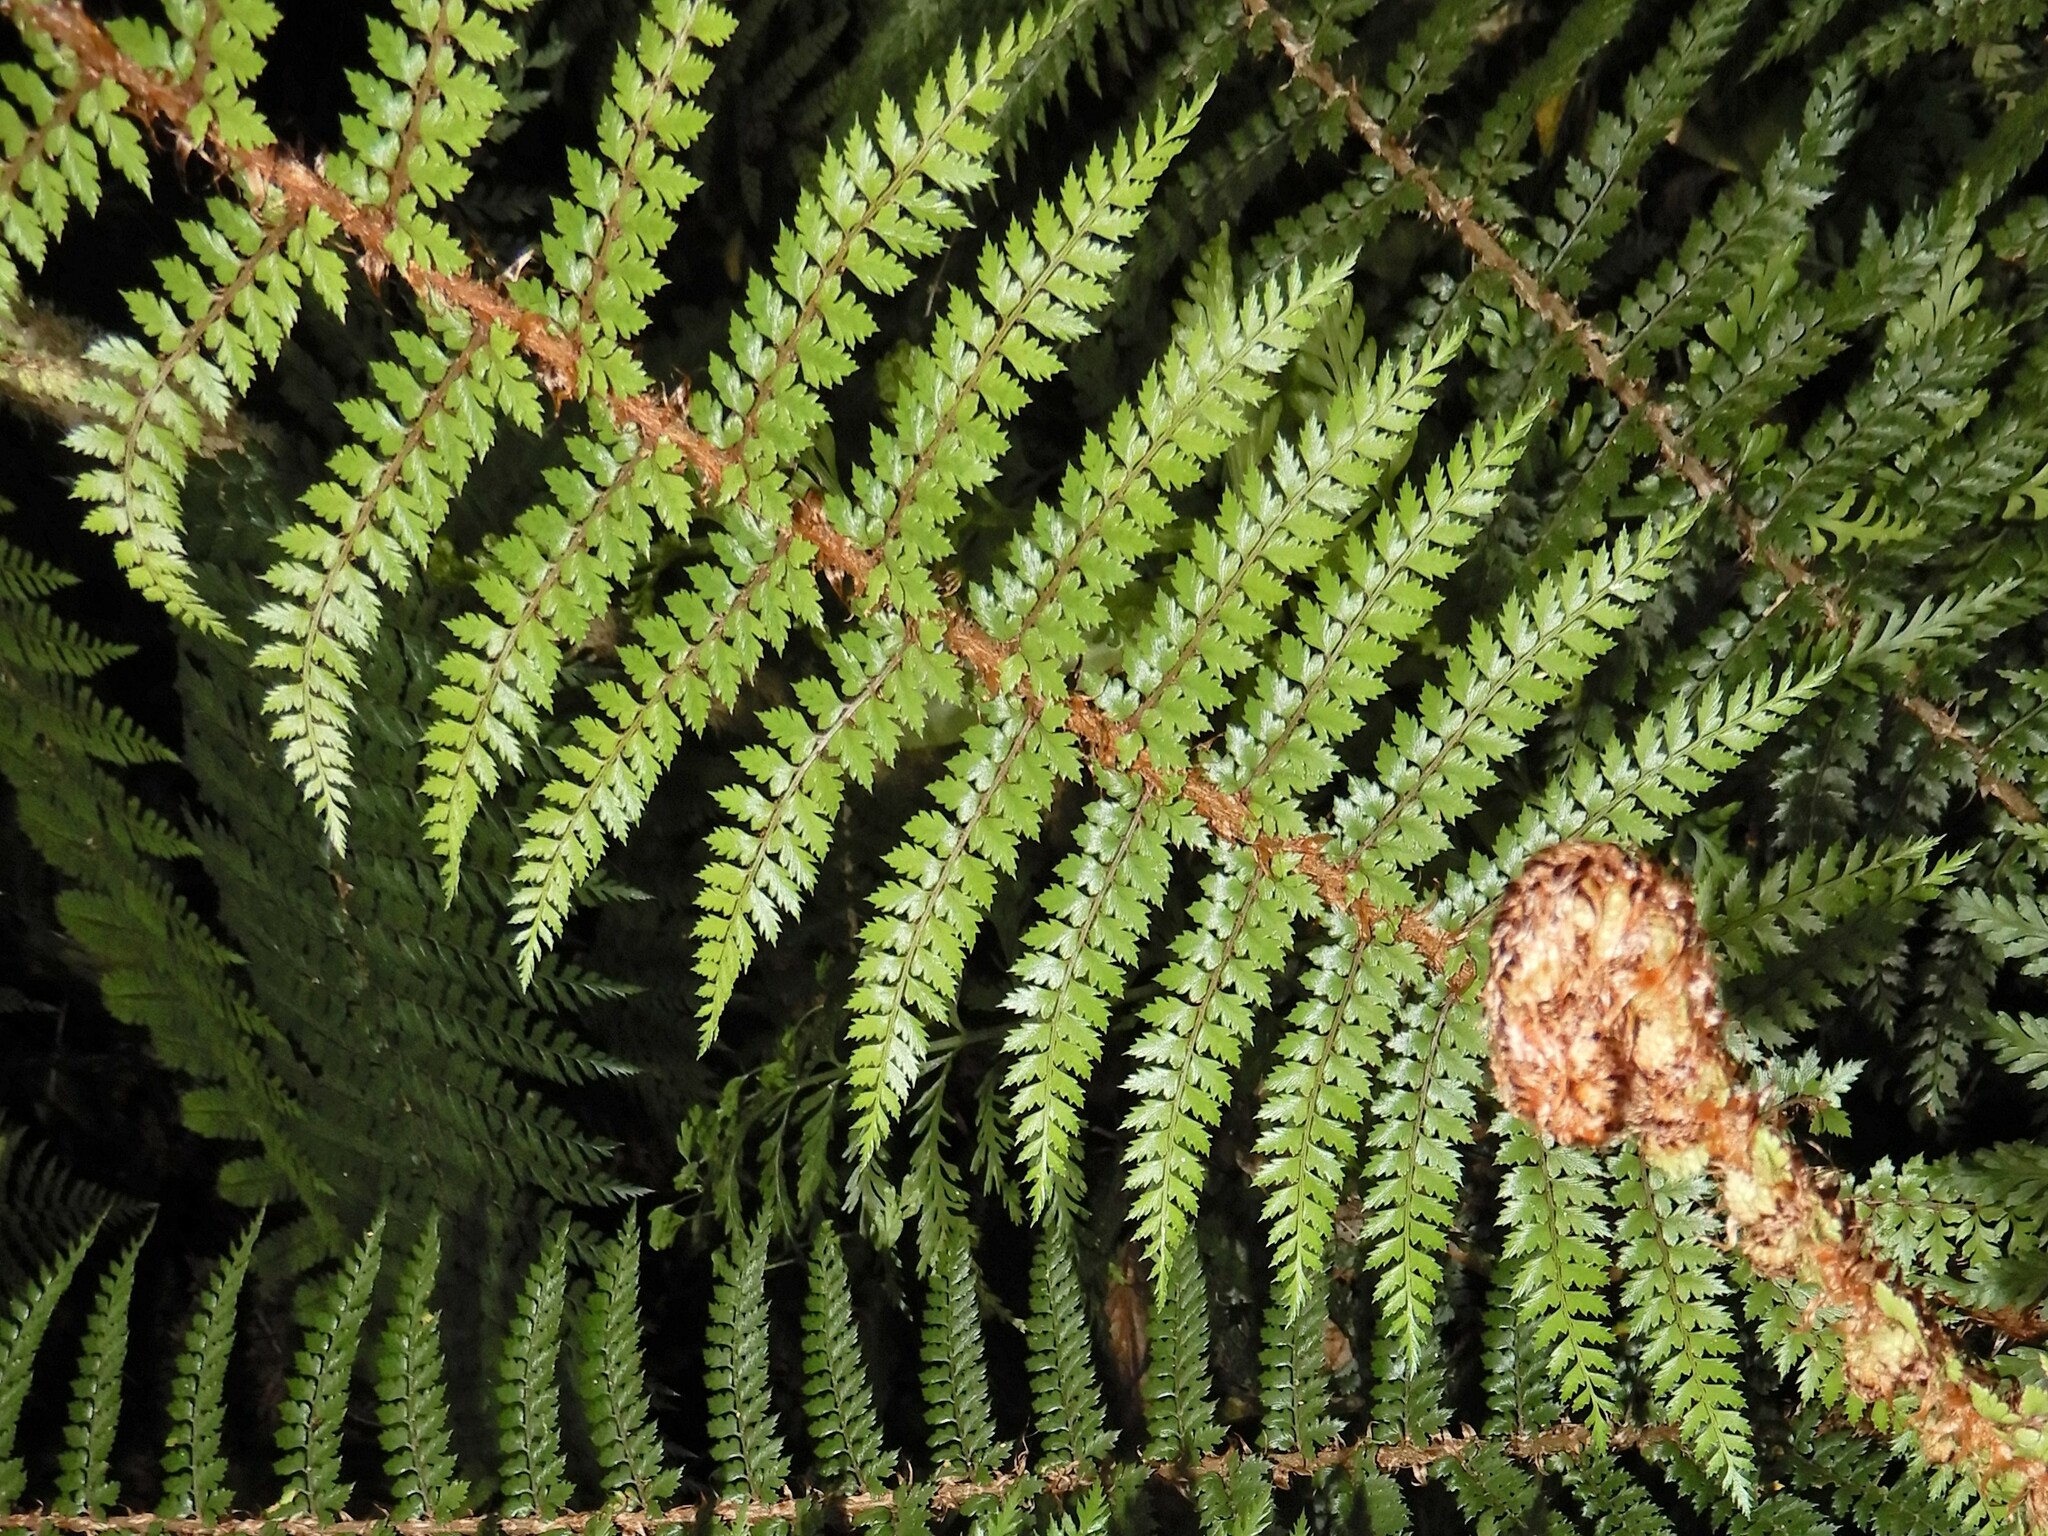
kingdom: Plantae
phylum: Tracheophyta
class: Polypodiopsida
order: Polypodiales
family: Dryopteridaceae
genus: Polystichum
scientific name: Polystichum vestitum
